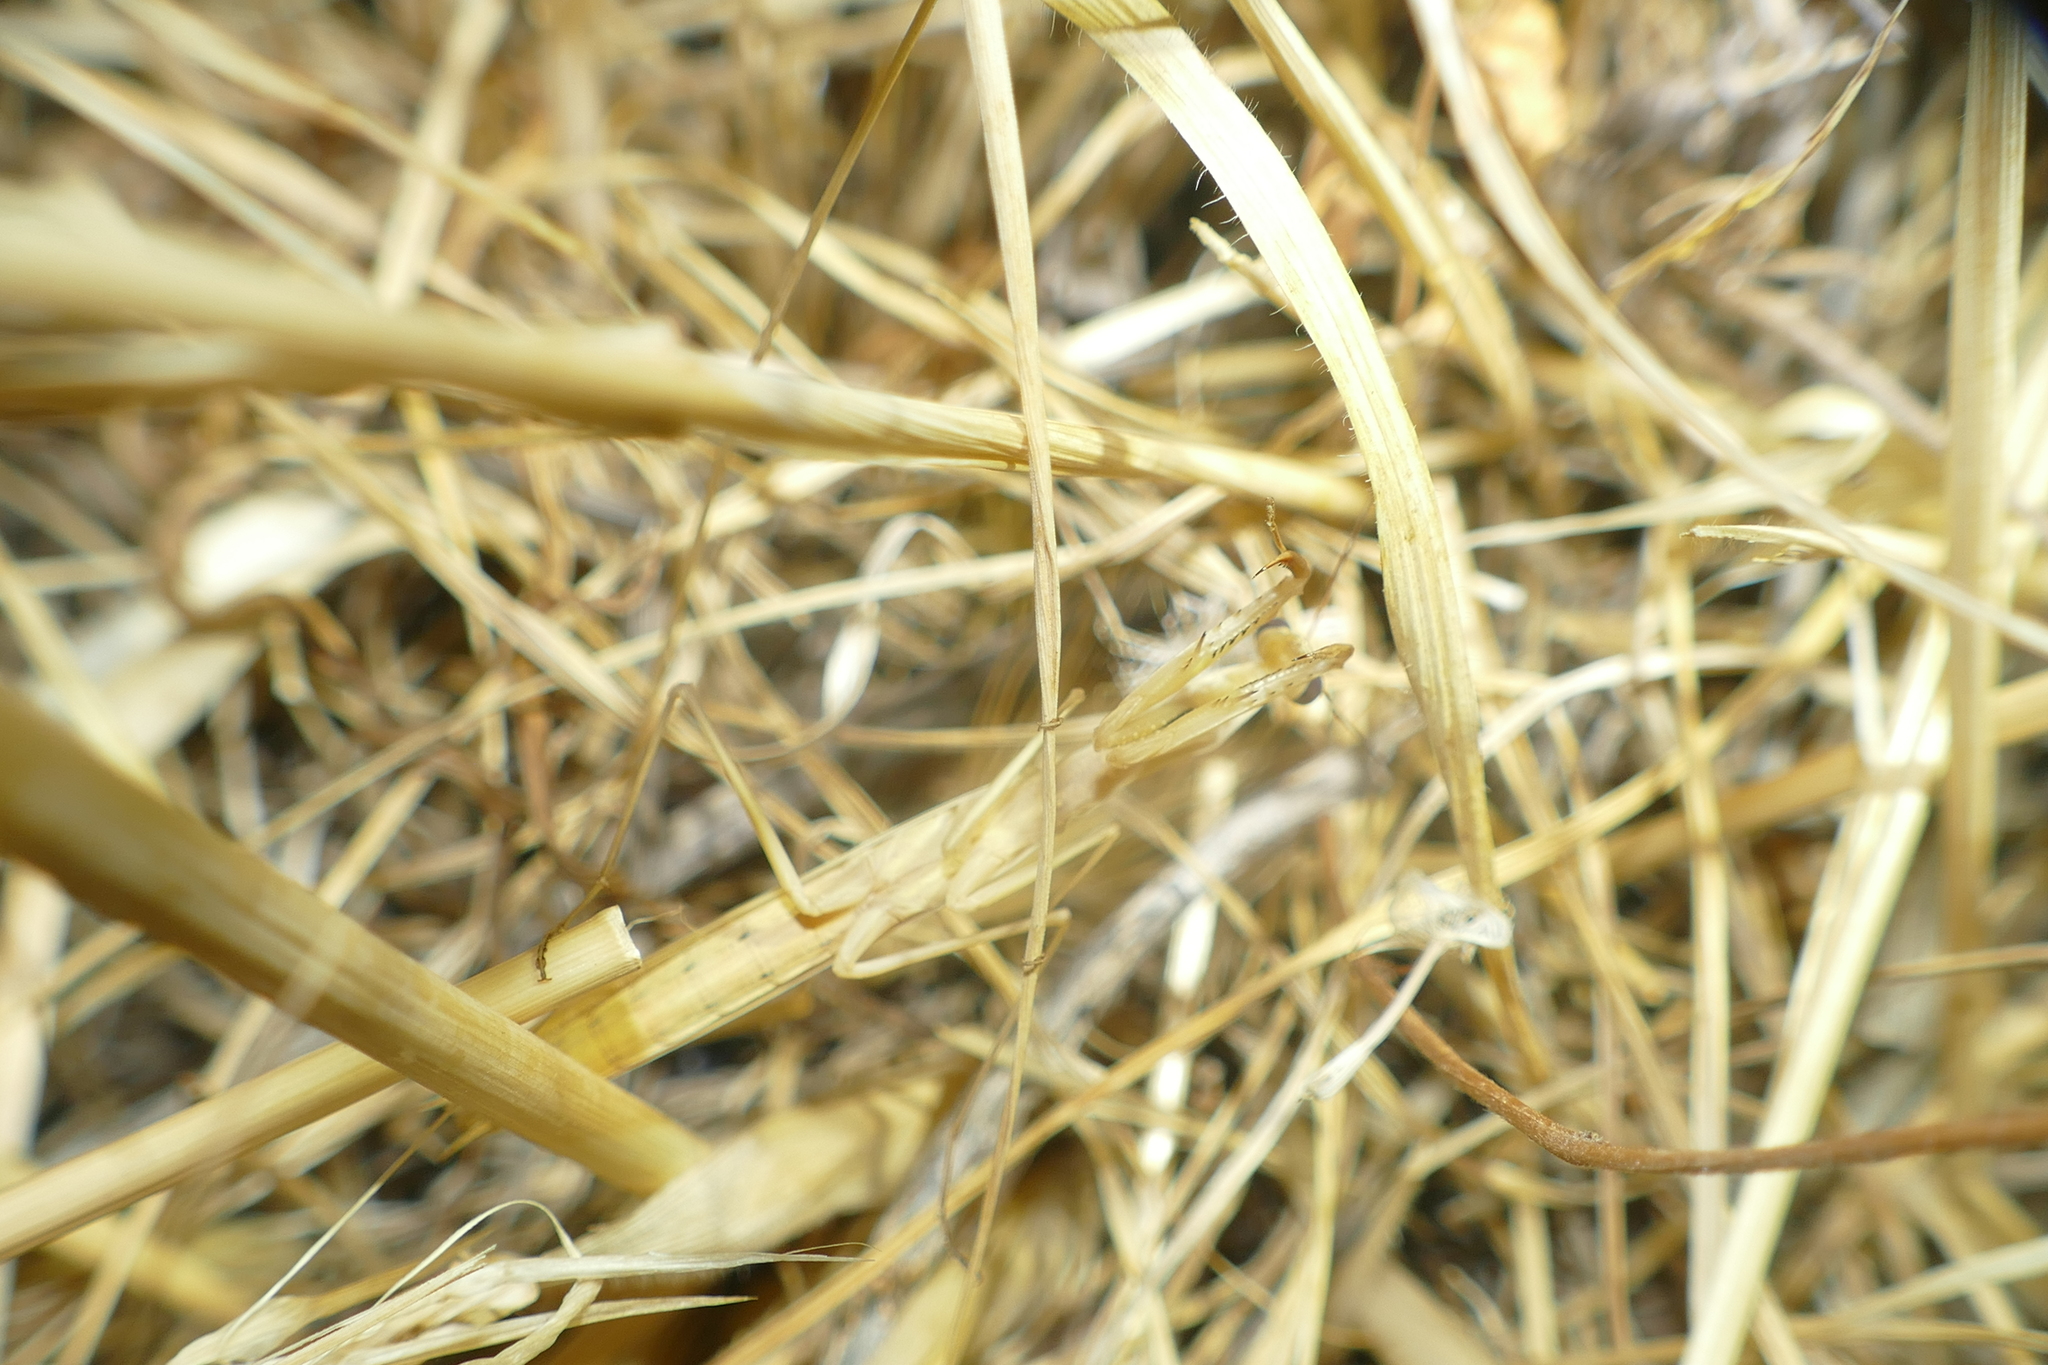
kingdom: Animalia
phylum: Arthropoda
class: Insecta
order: Mantodea
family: Mantidae
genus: Mantis
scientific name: Mantis religiosa
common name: Praying mantis
